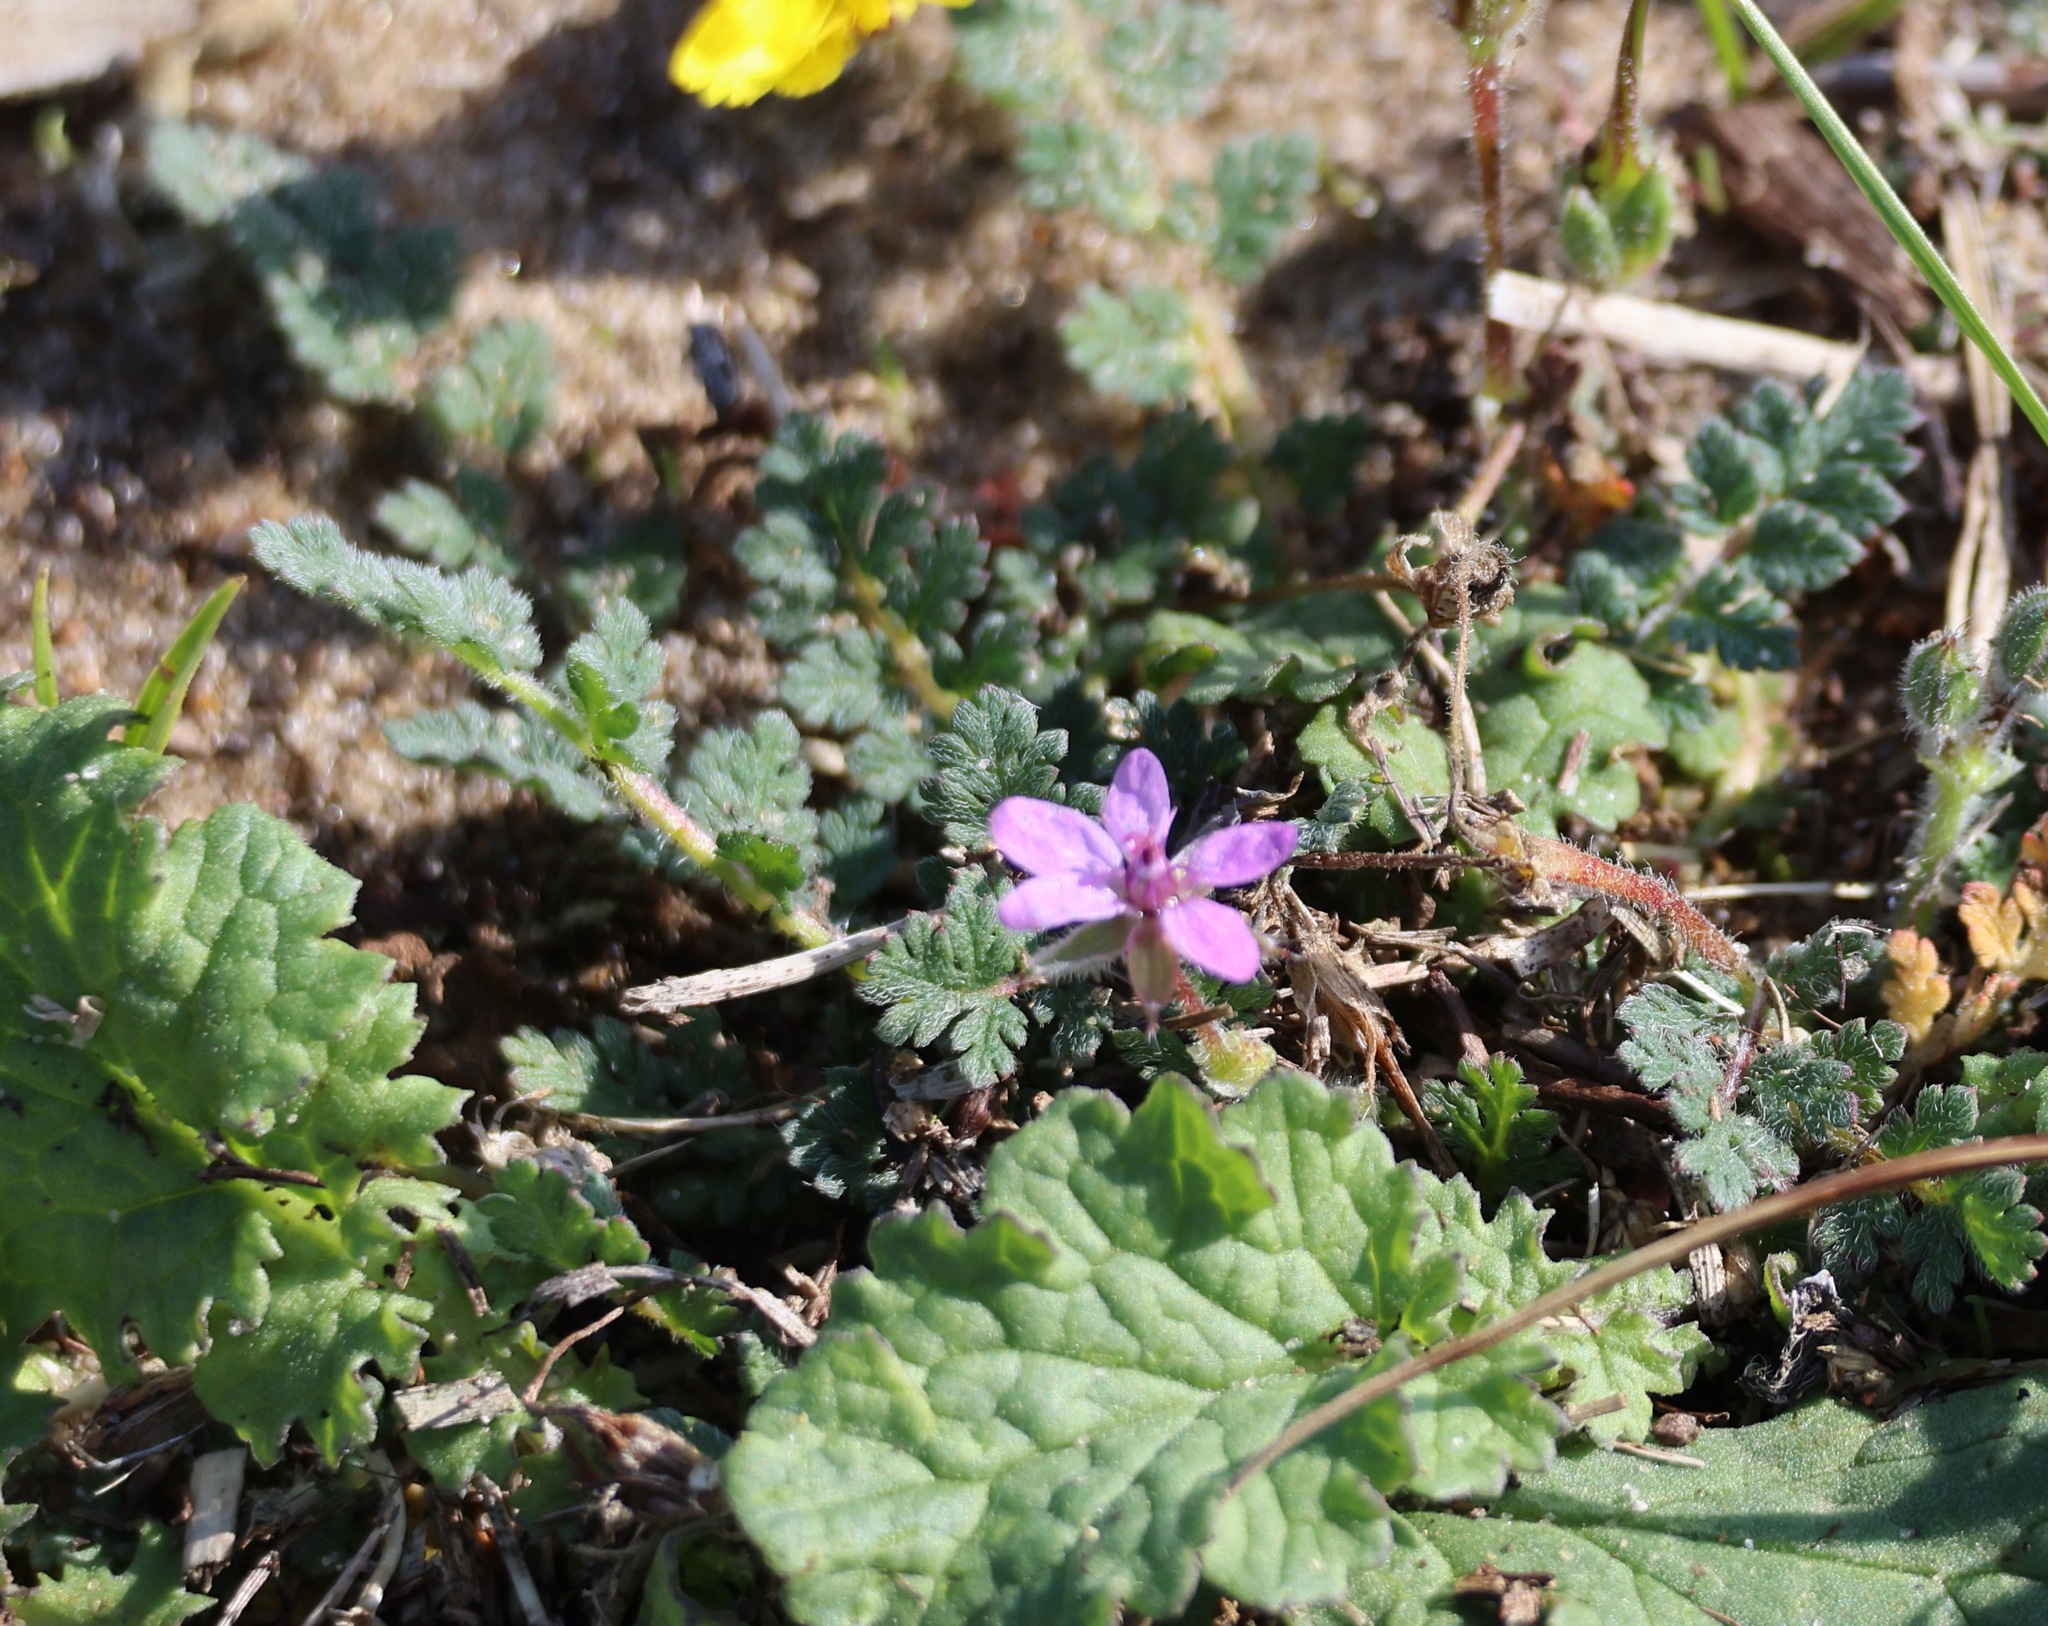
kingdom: Plantae
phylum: Tracheophyta
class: Magnoliopsida
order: Geraniales
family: Geraniaceae
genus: Erodium
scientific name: Erodium cicutarium
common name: Common stork's-bill
